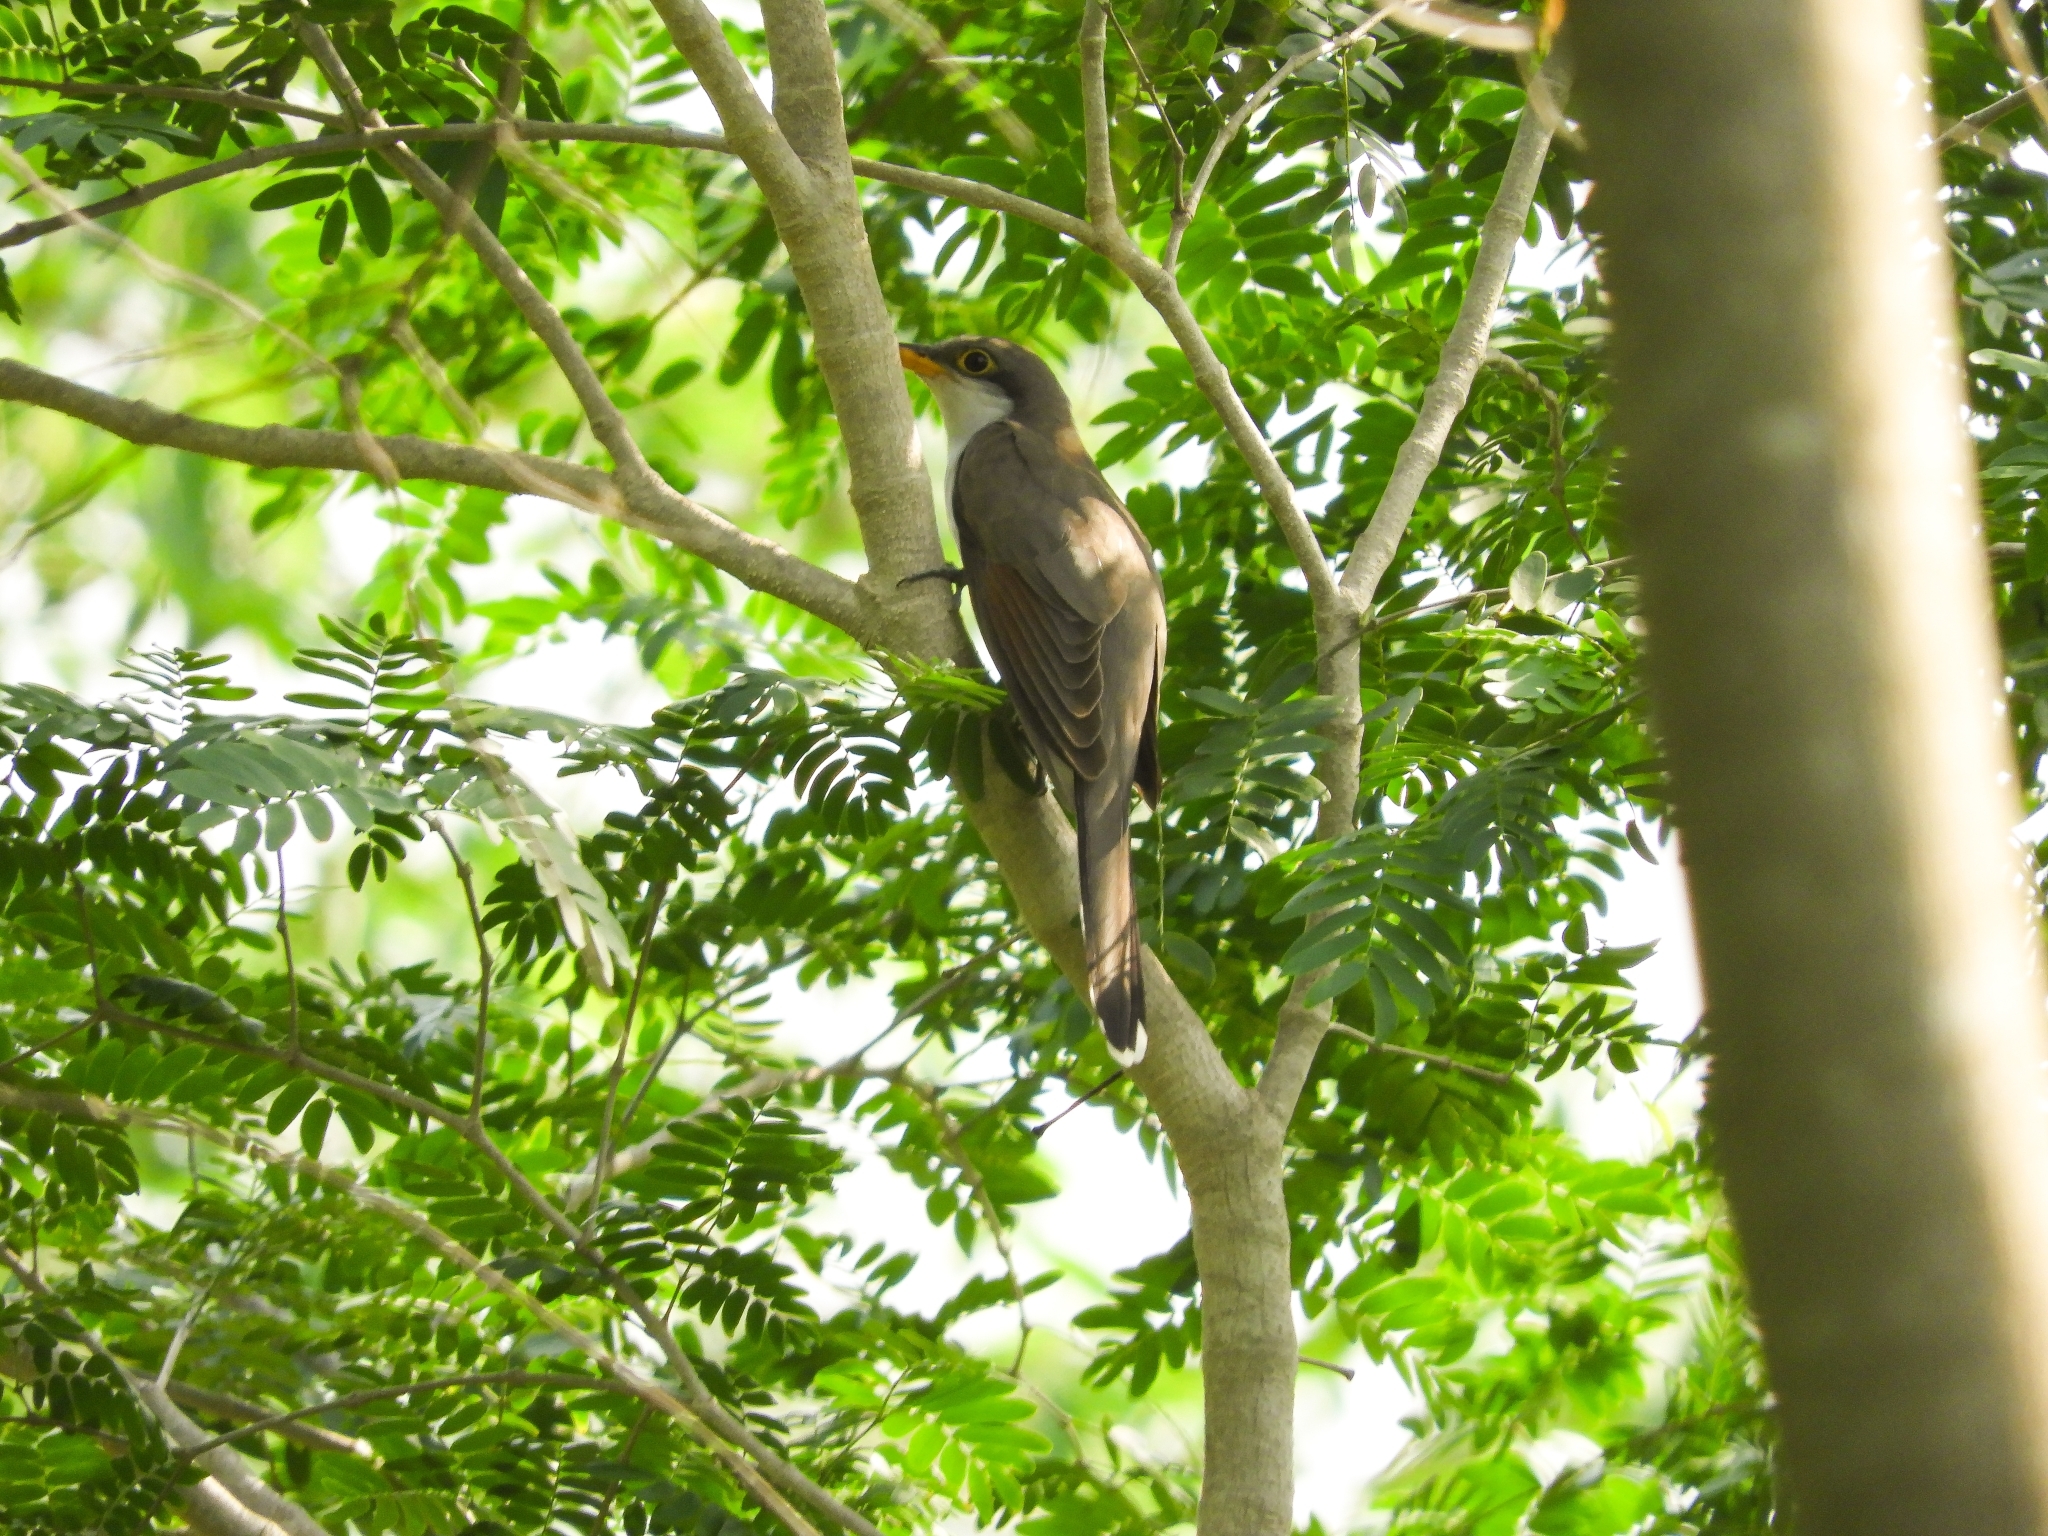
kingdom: Animalia
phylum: Chordata
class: Aves
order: Cuculiformes
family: Cuculidae
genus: Coccyzus
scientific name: Coccyzus americanus
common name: Yellow-billed cuckoo
